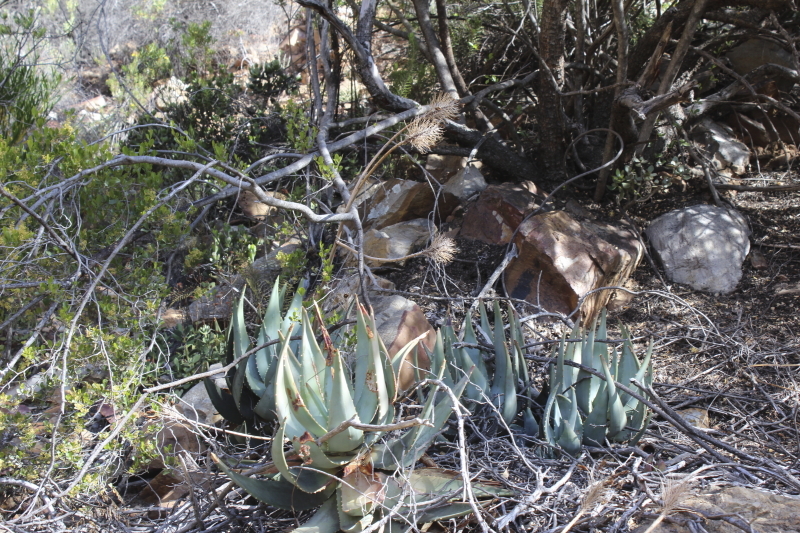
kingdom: Plantae
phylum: Tracheophyta
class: Liliopsida
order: Asparagales
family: Asphodelaceae
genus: Aloe
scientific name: Aloe comptonii
